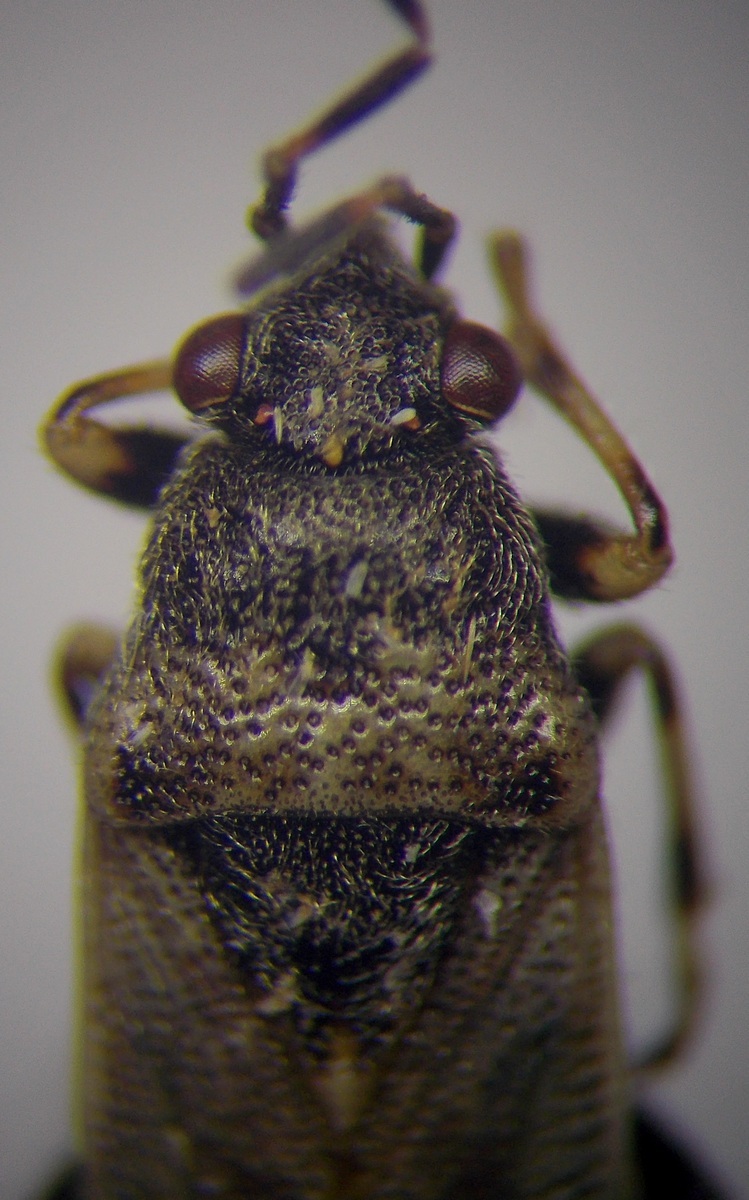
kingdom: Animalia
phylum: Arthropoda
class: Insecta
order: Hemiptera
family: Heterogastridae
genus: Heterogaster
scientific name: Heterogaster cathariae
